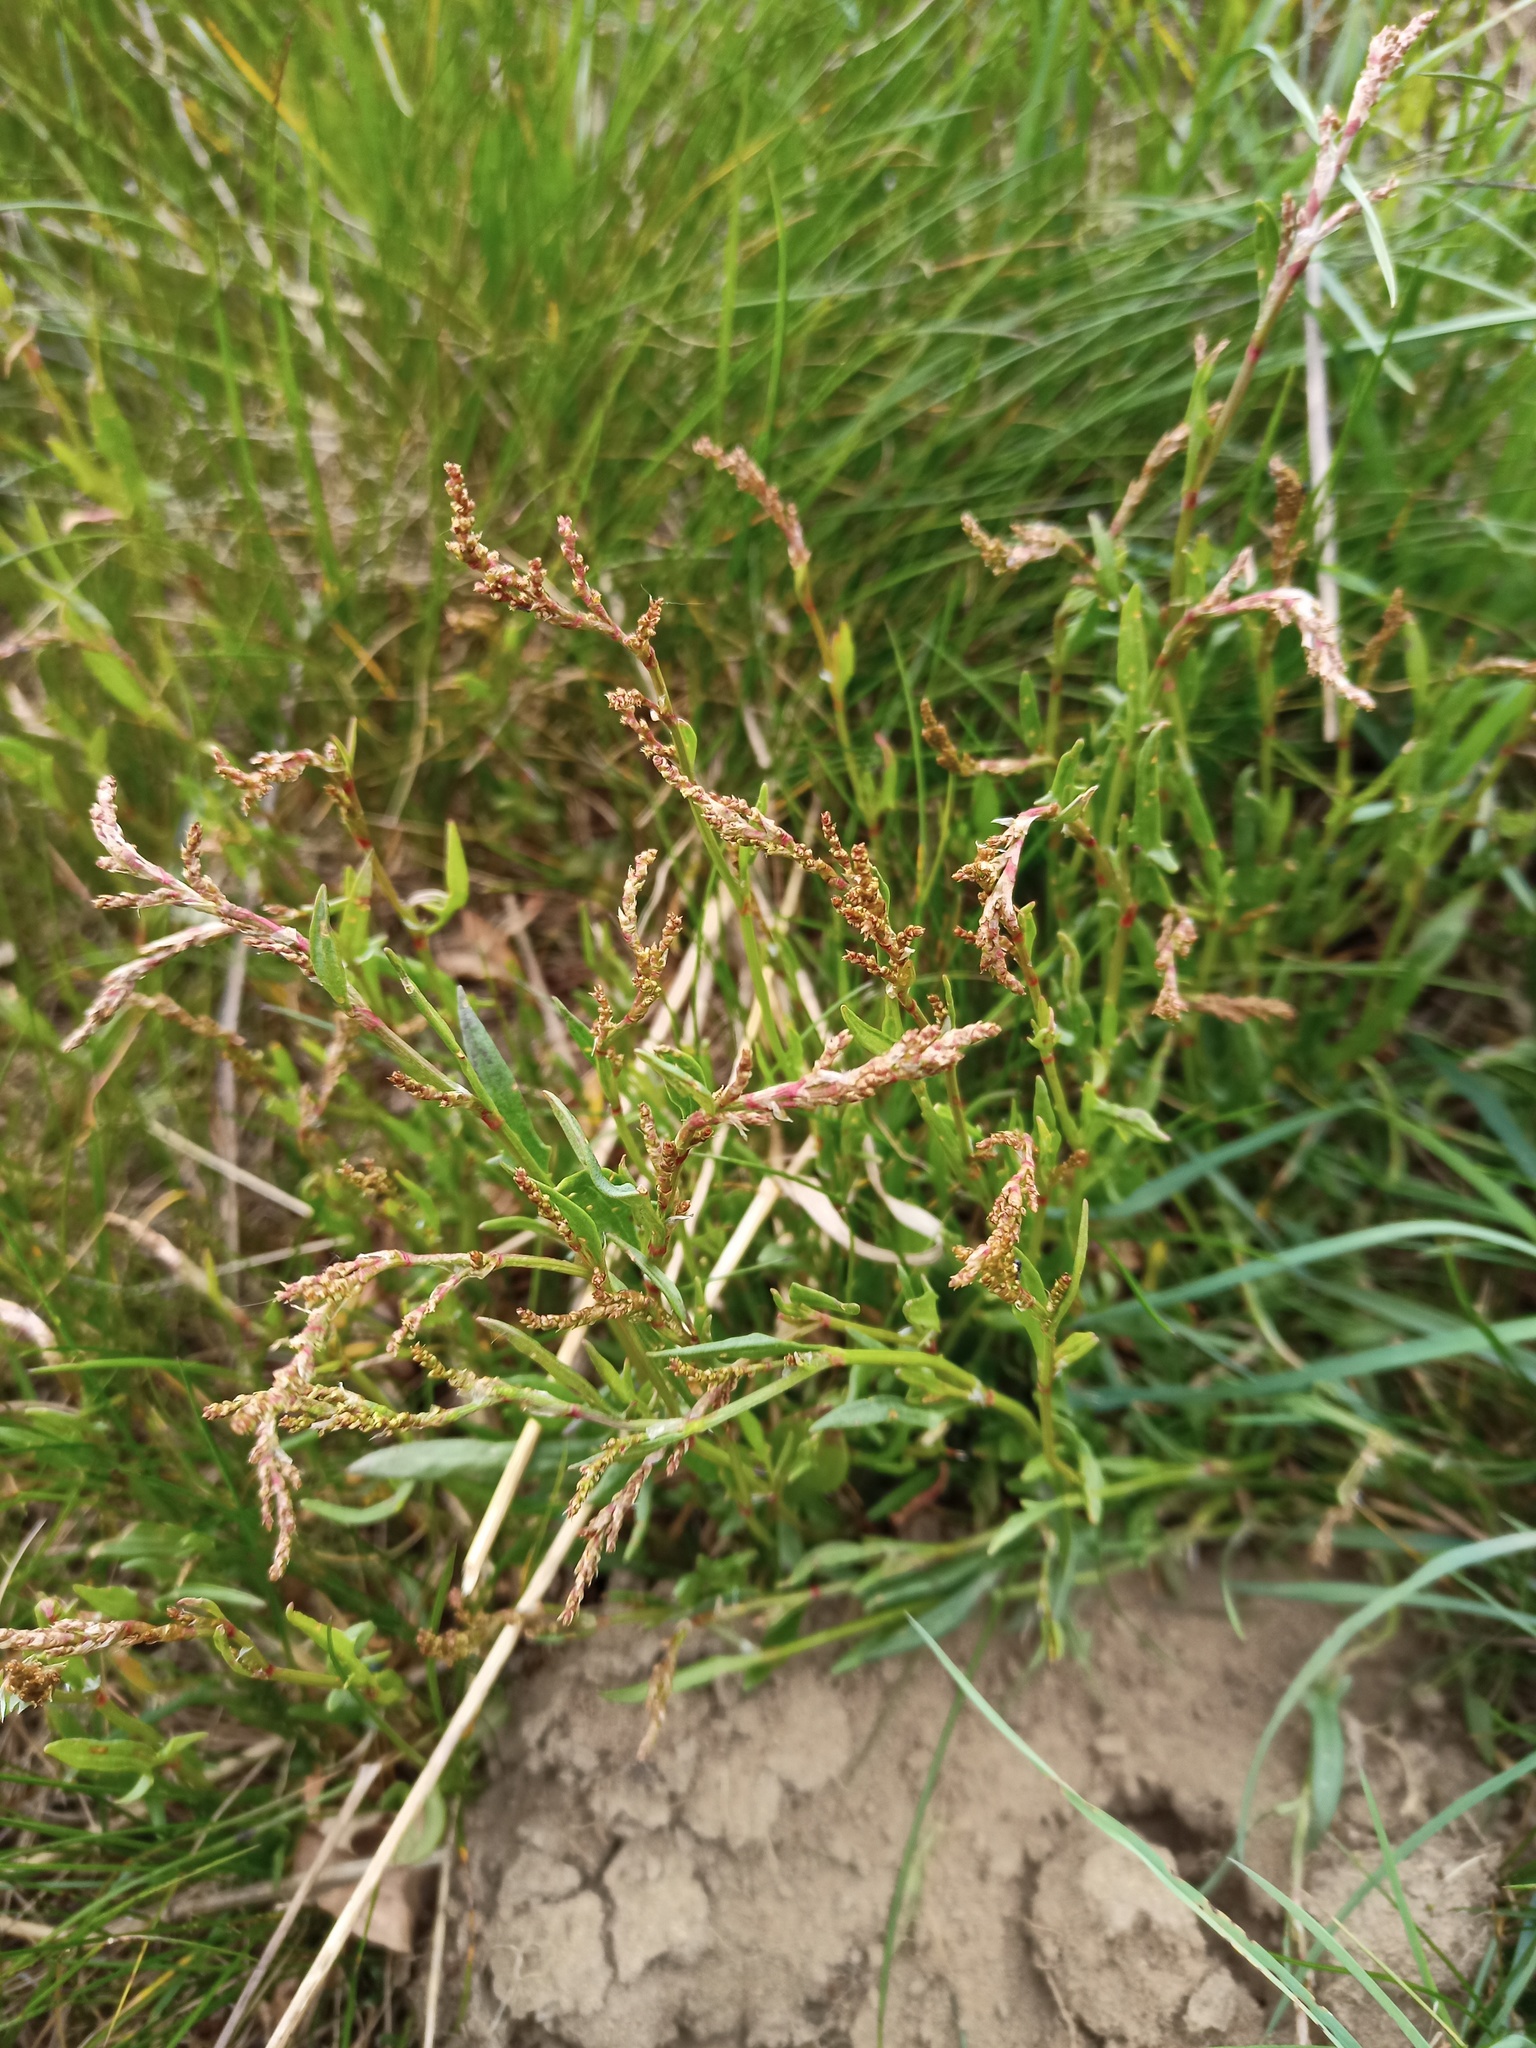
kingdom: Plantae
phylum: Tracheophyta
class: Magnoliopsida
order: Caryophyllales
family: Polygonaceae
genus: Rumex
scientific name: Rumex acetosella
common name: Common sheep sorrel
